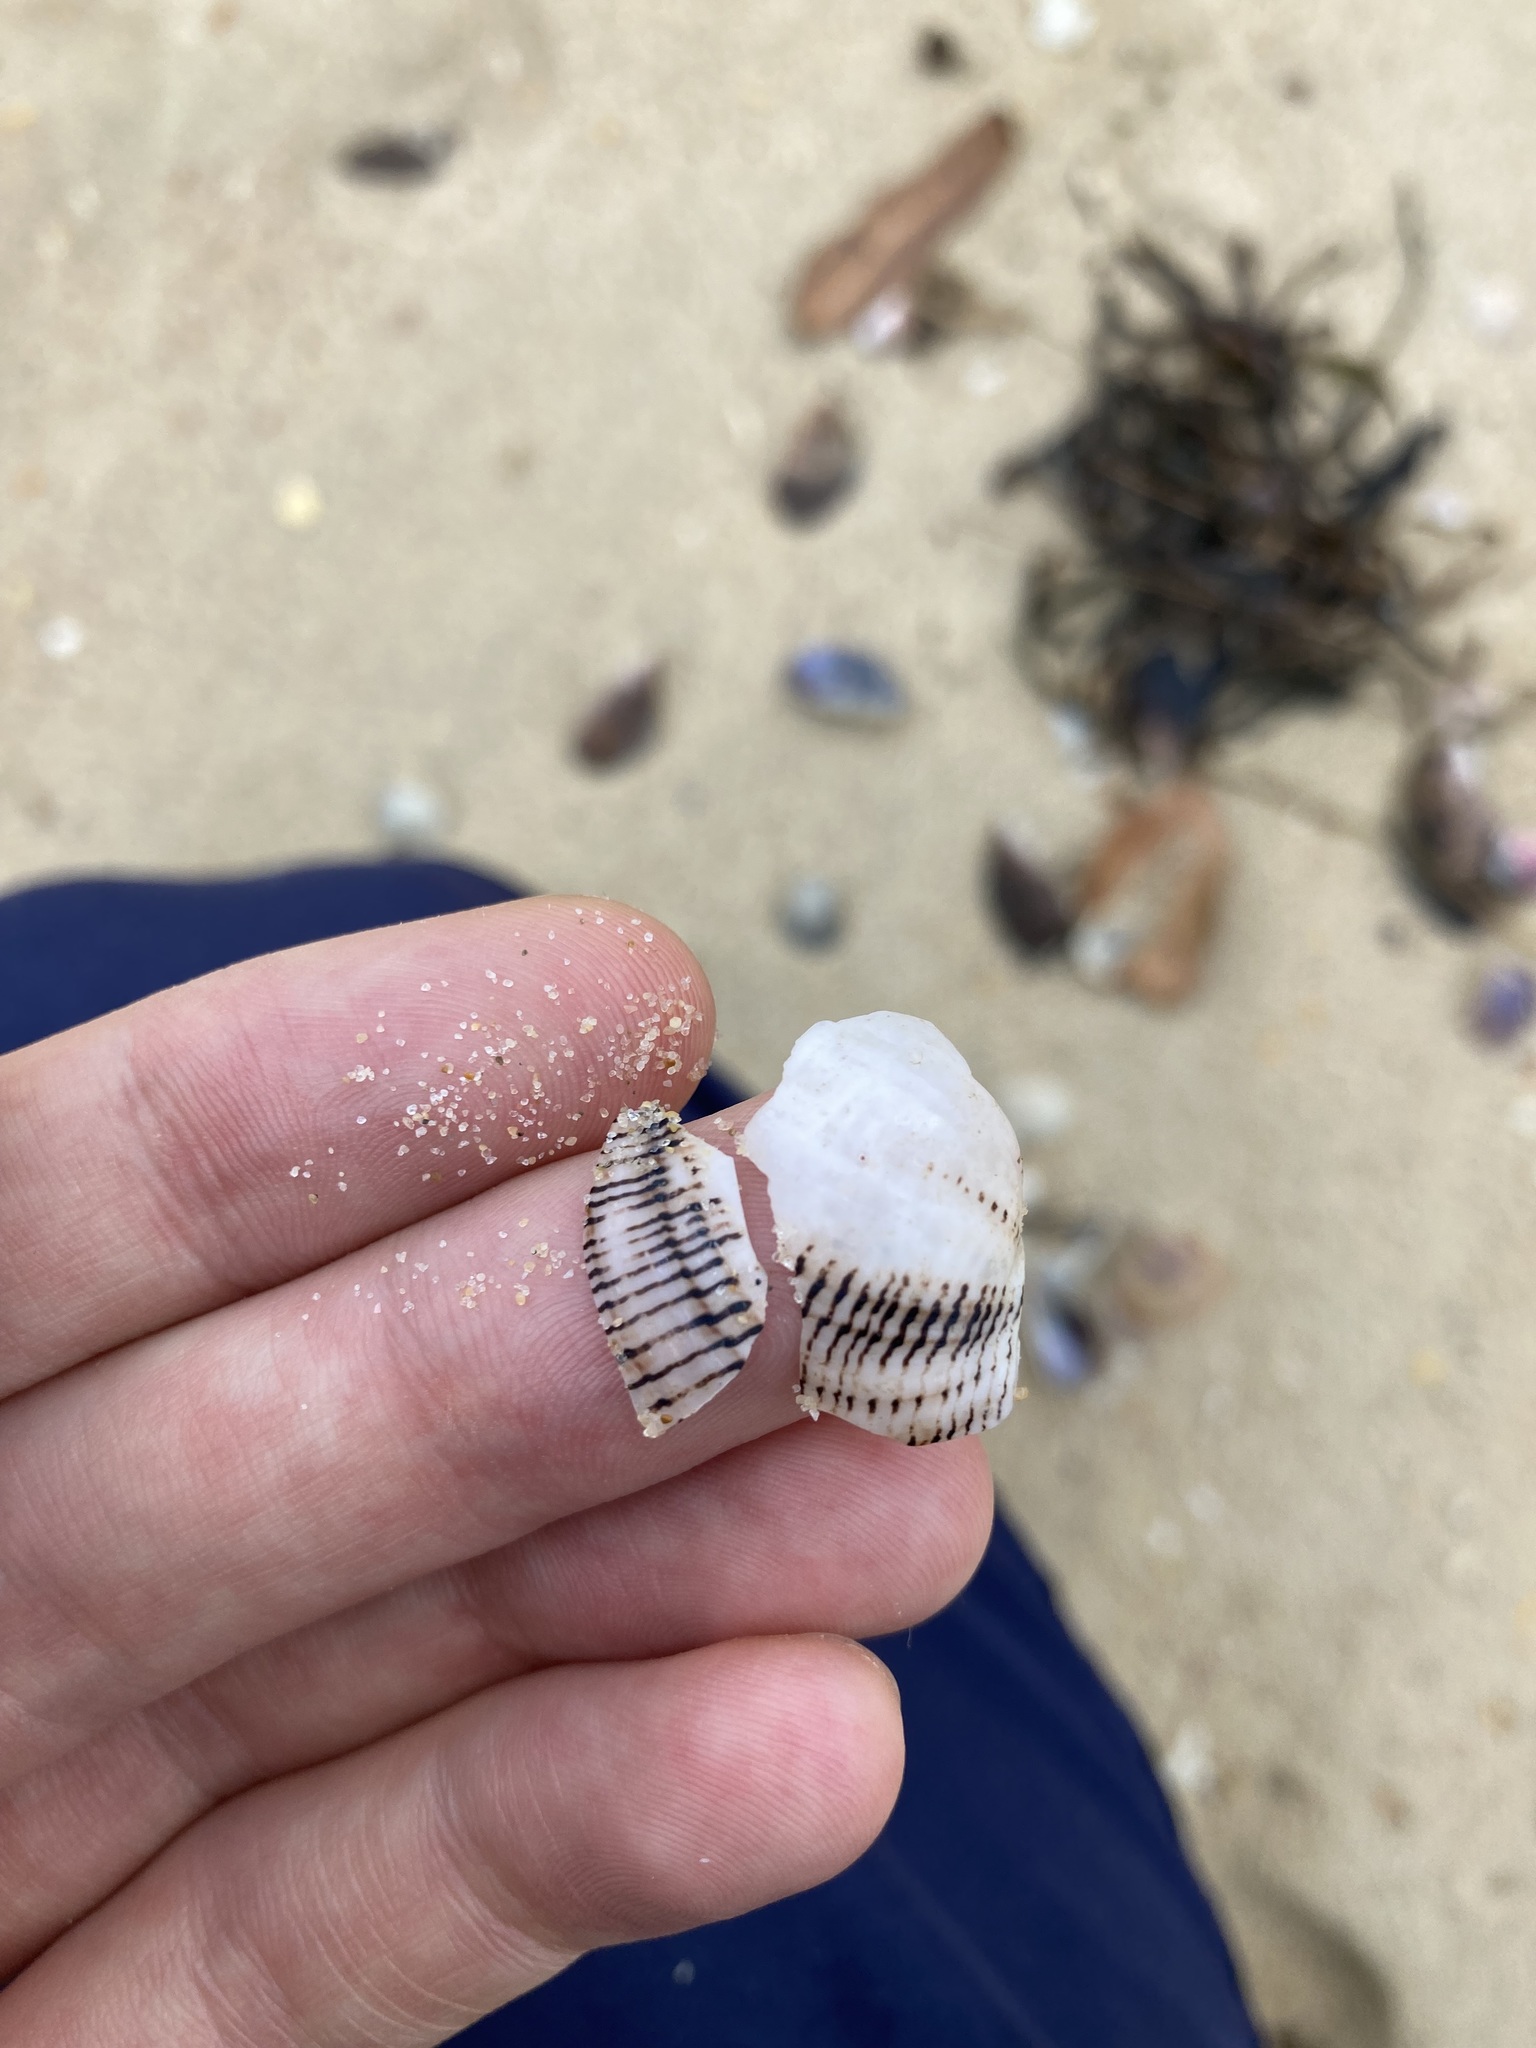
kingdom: Animalia
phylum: Mollusca
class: Gastropoda
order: Cephalaspidea
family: Aplustridae
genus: Hydatina
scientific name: Hydatina physis
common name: Brown-line paperbubble
